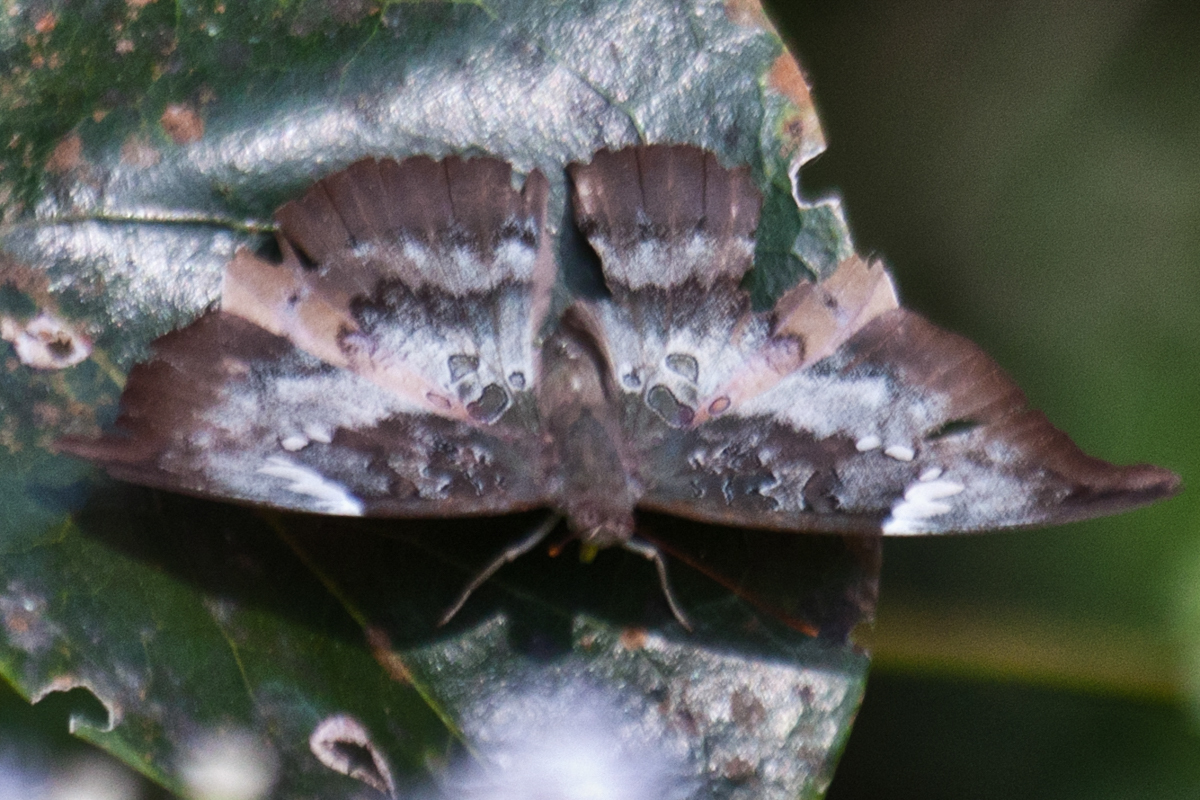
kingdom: Animalia
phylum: Arthropoda
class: Insecta
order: Lepidoptera
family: Nymphalidae
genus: Euthalia
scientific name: Euthalia anosia
